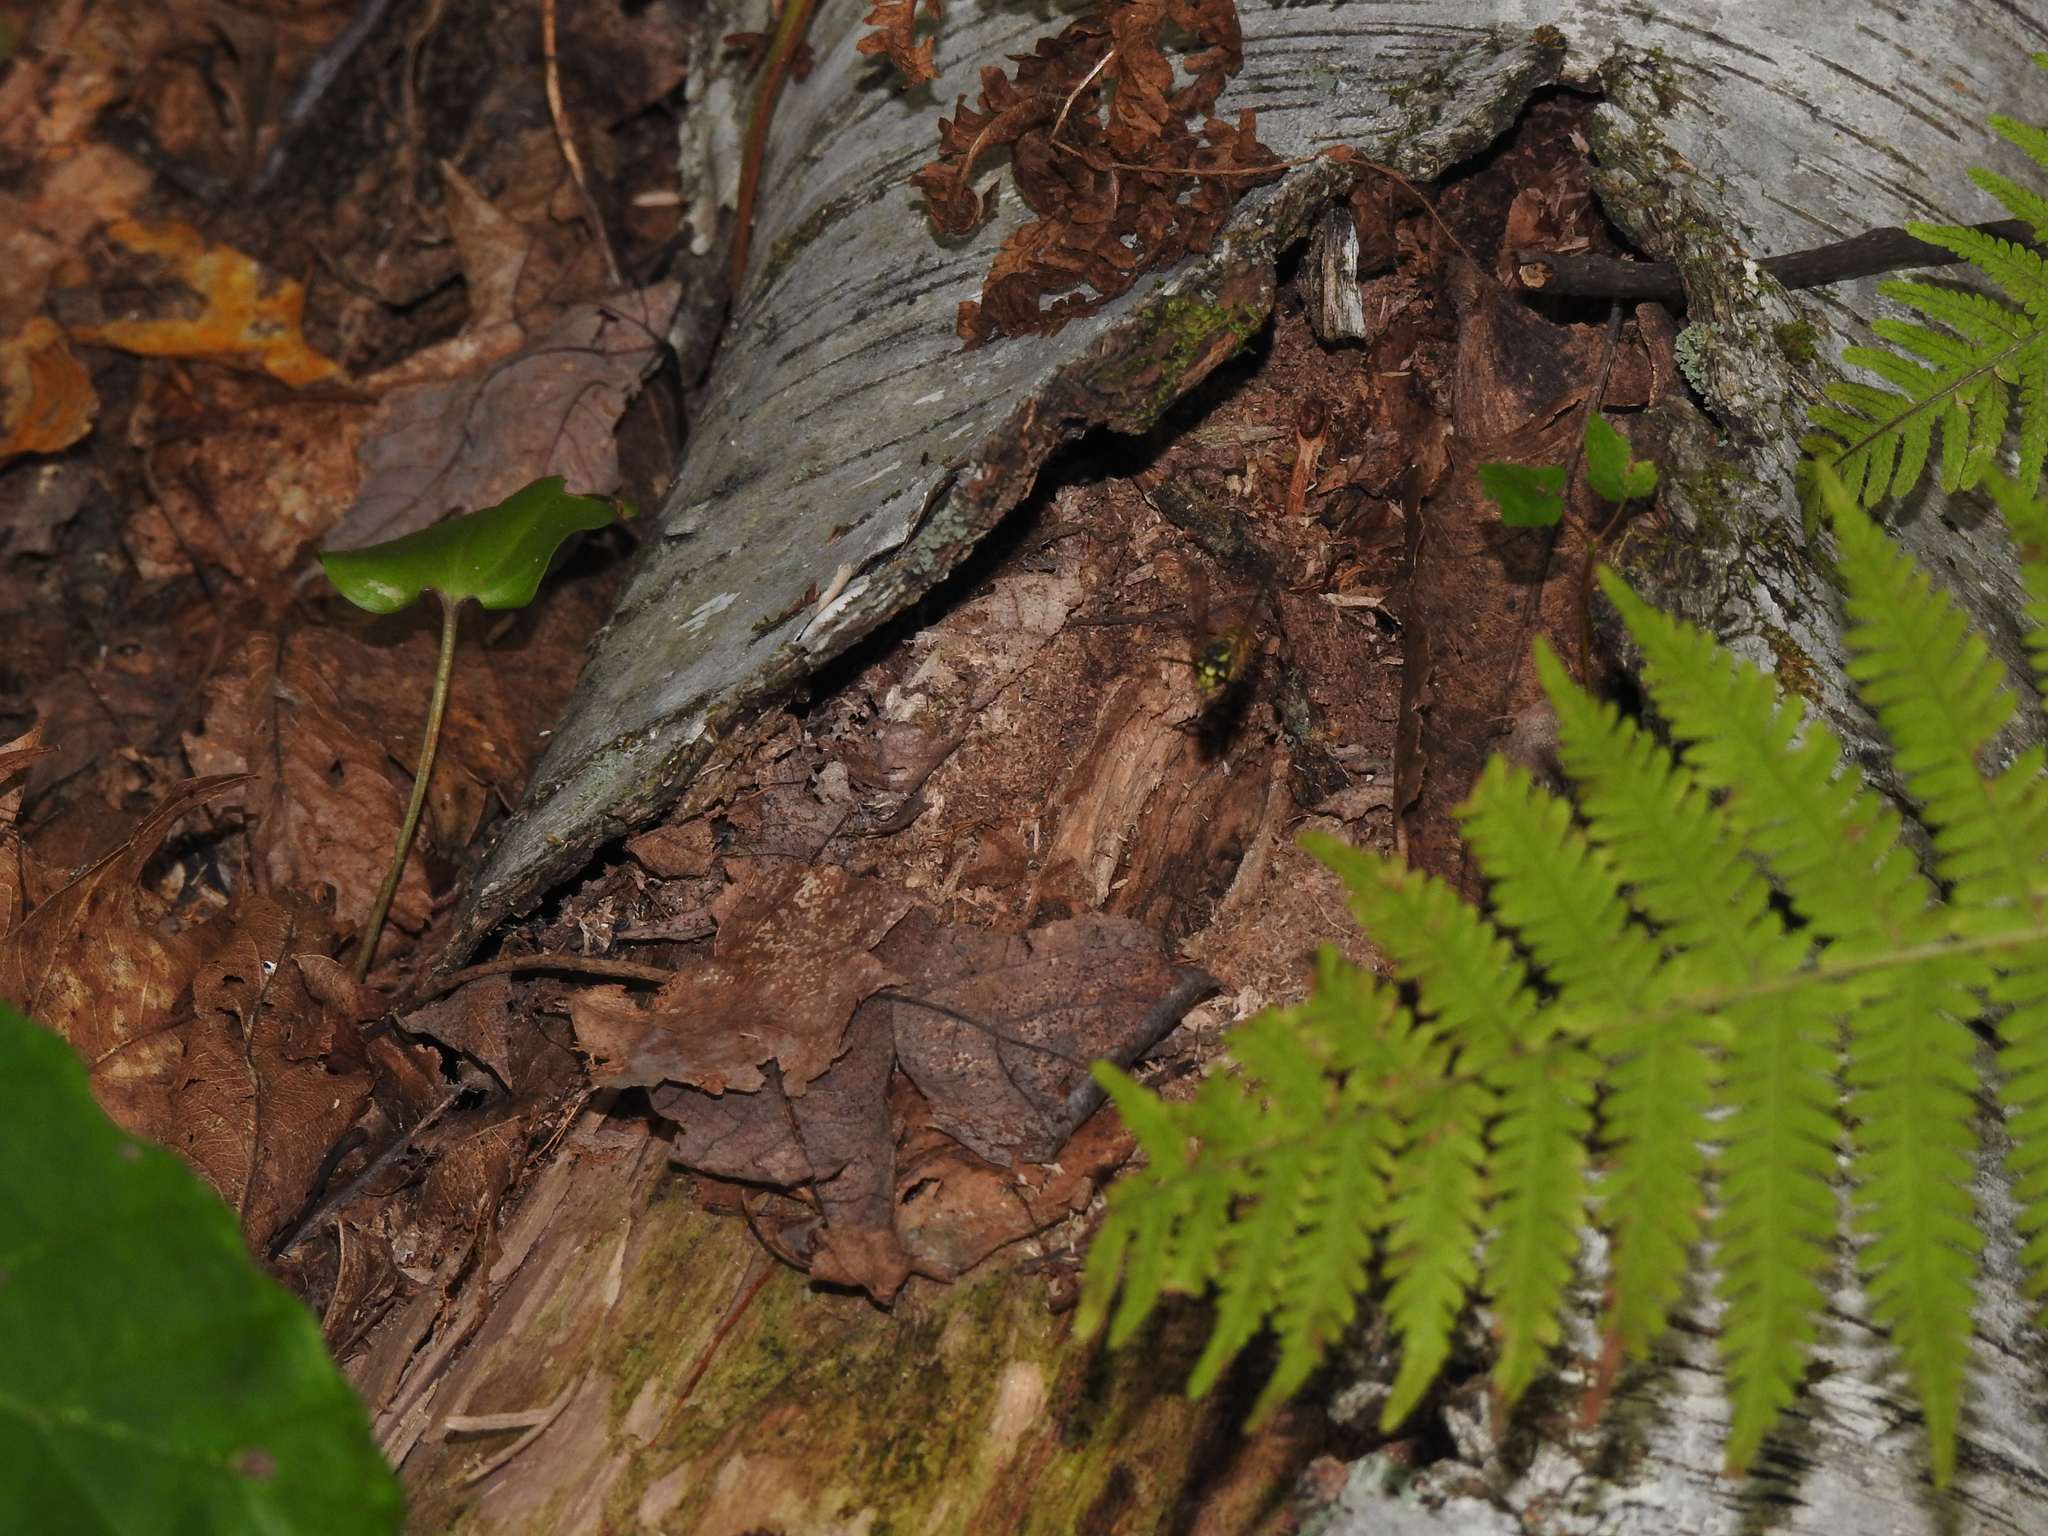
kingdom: Animalia
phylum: Arthropoda
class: Insecta
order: Hymenoptera
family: Vespidae
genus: Vespula
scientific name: Vespula maculifrons
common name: Eastern yellowjacket
